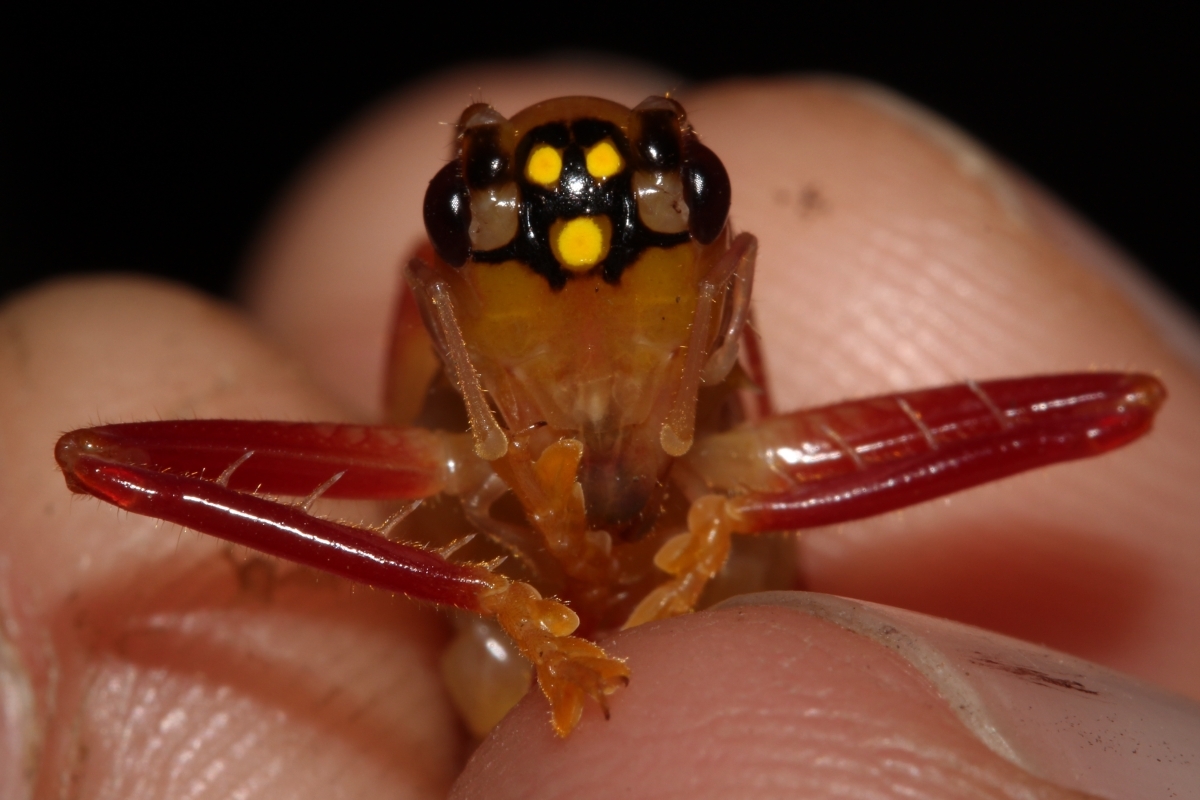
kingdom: Animalia
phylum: Arthropoda
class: Insecta
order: Orthoptera
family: Gryllacrididae
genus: Brachybaenus
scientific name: Brachybaenus
